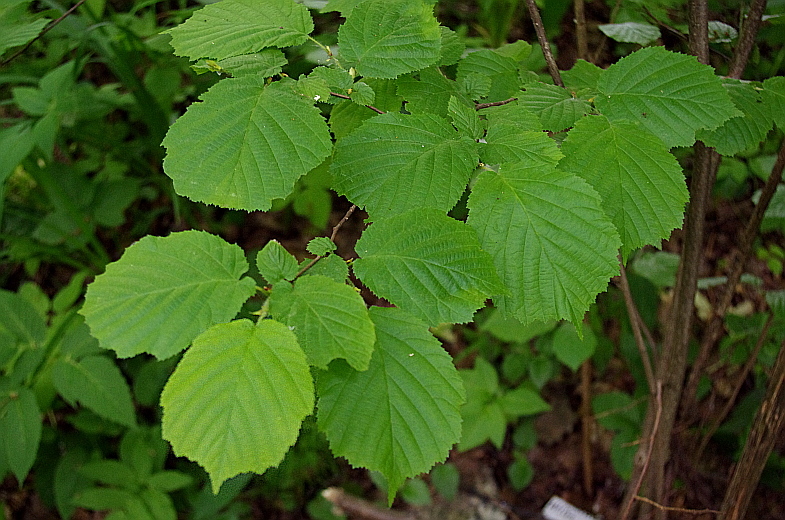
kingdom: Plantae
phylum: Tracheophyta
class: Magnoliopsida
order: Fagales
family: Betulaceae
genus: Corylus
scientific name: Corylus avellana
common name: European hazel
